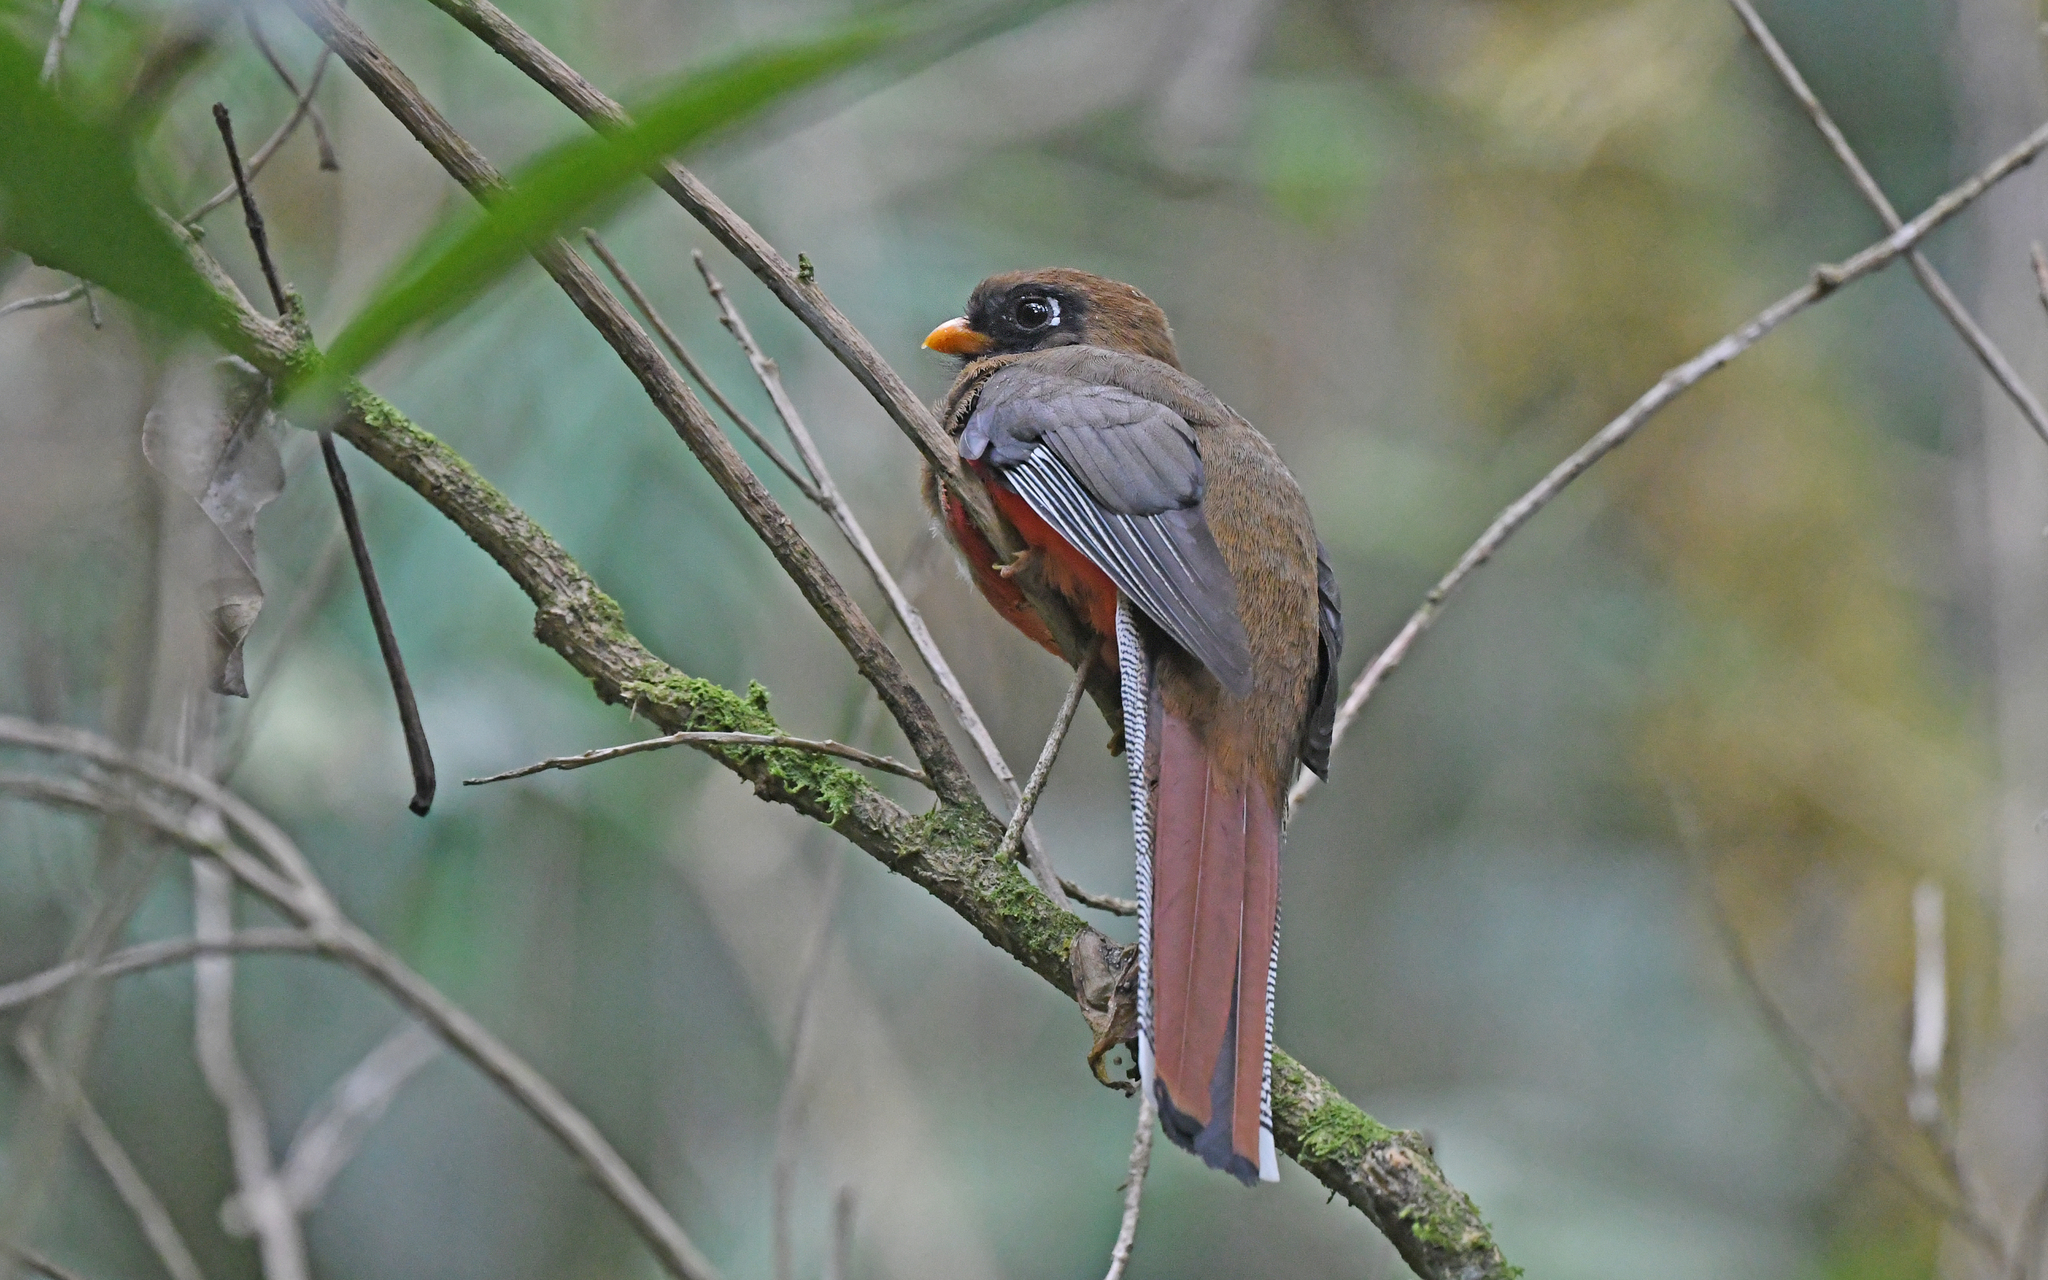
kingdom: Animalia
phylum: Chordata
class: Aves
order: Trogoniformes
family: Trogonidae
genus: Trogon
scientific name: Trogon personatus
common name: Masked trogon
